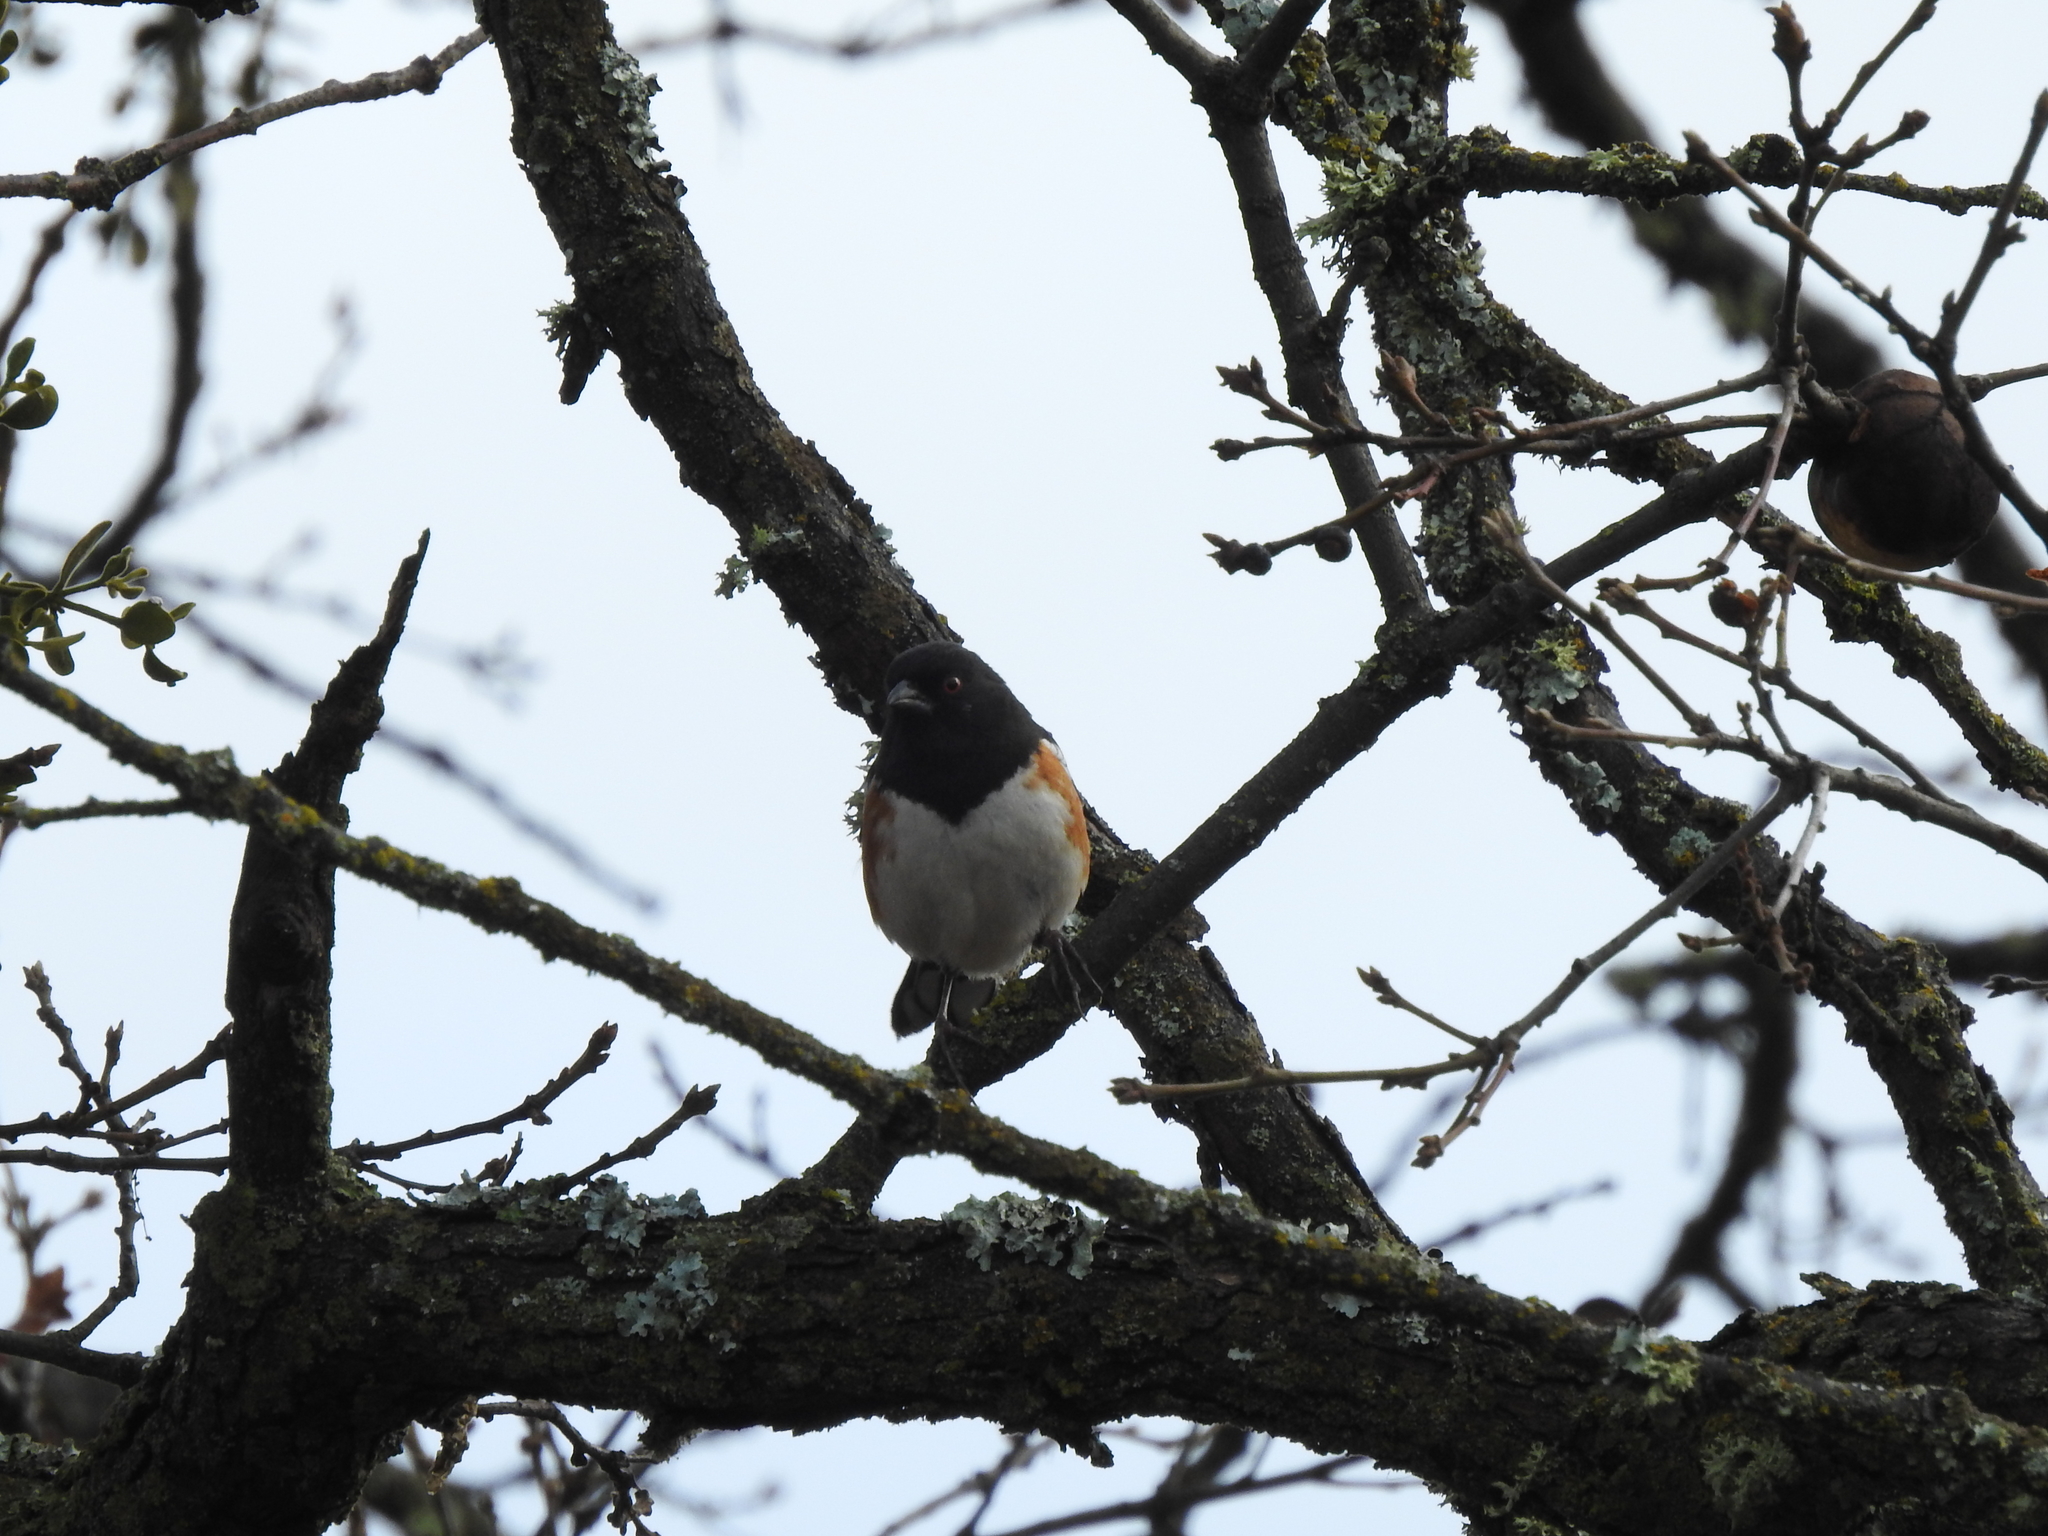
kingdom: Animalia
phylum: Chordata
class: Aves
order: Passeriformes
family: Passerellidae
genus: Pipilo
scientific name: Pipilo maculatus
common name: Spotted towhee
